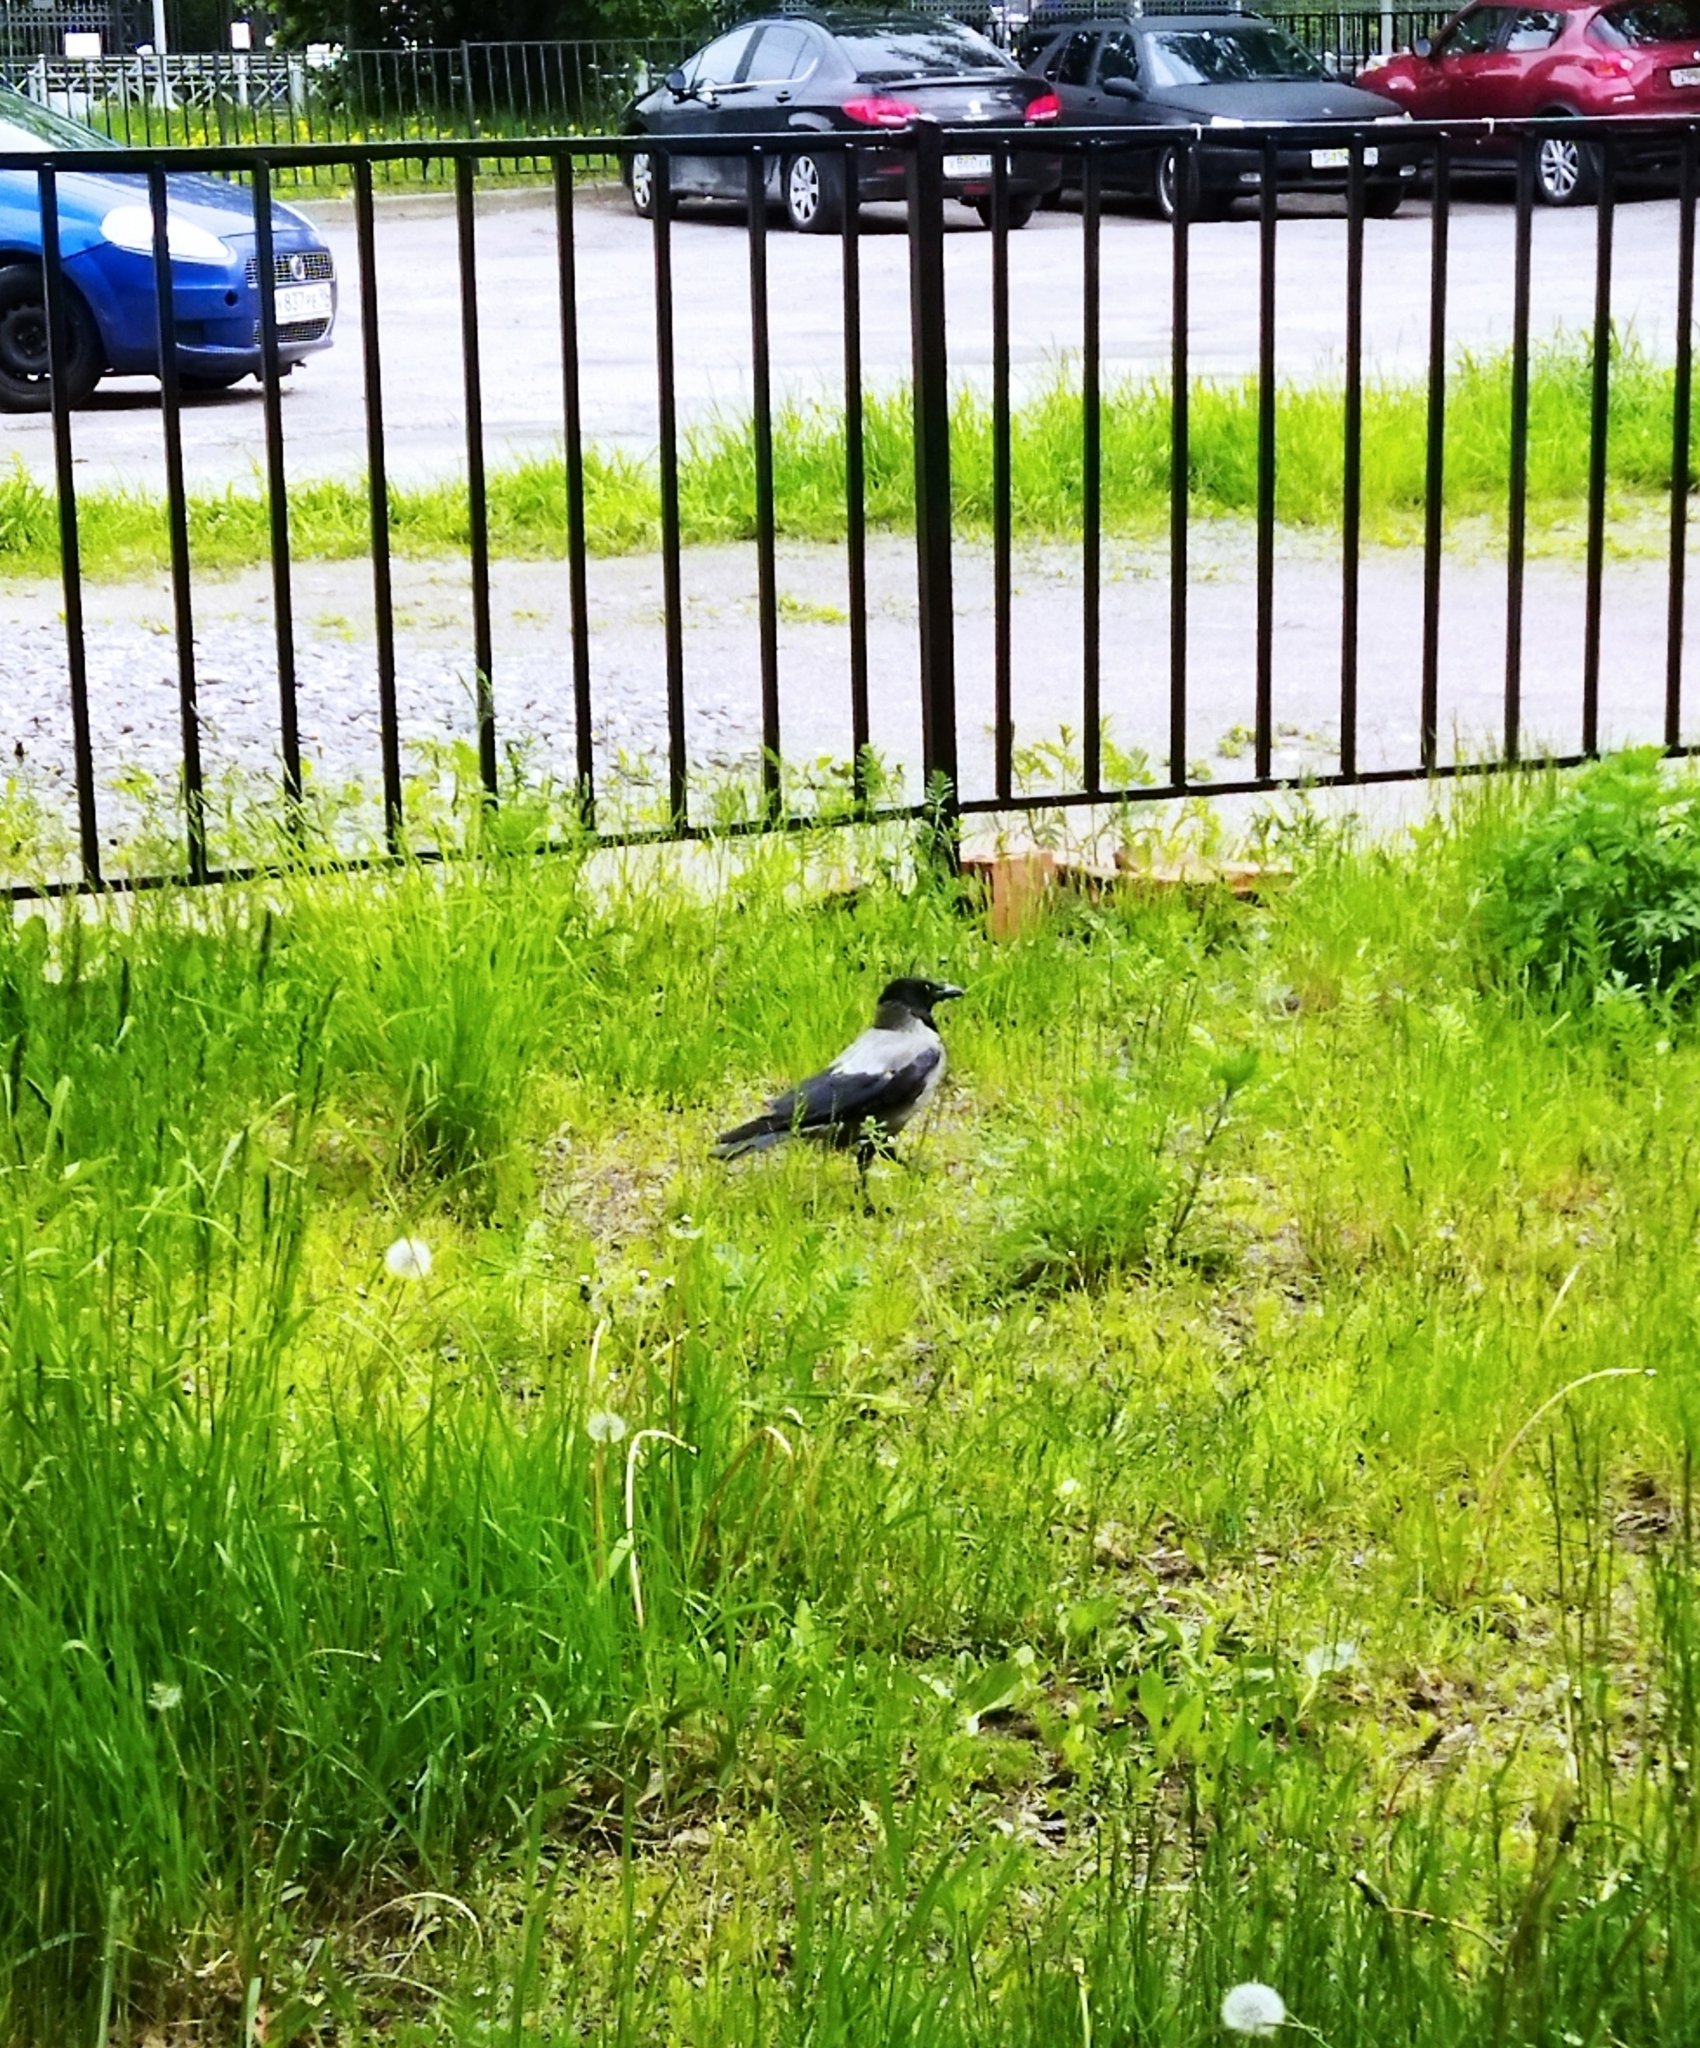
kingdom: Animalia
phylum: Chordata
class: Aves
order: Passeriformes
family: Corvidae
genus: Corvus
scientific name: Corvus cornix
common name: Hooded crow
